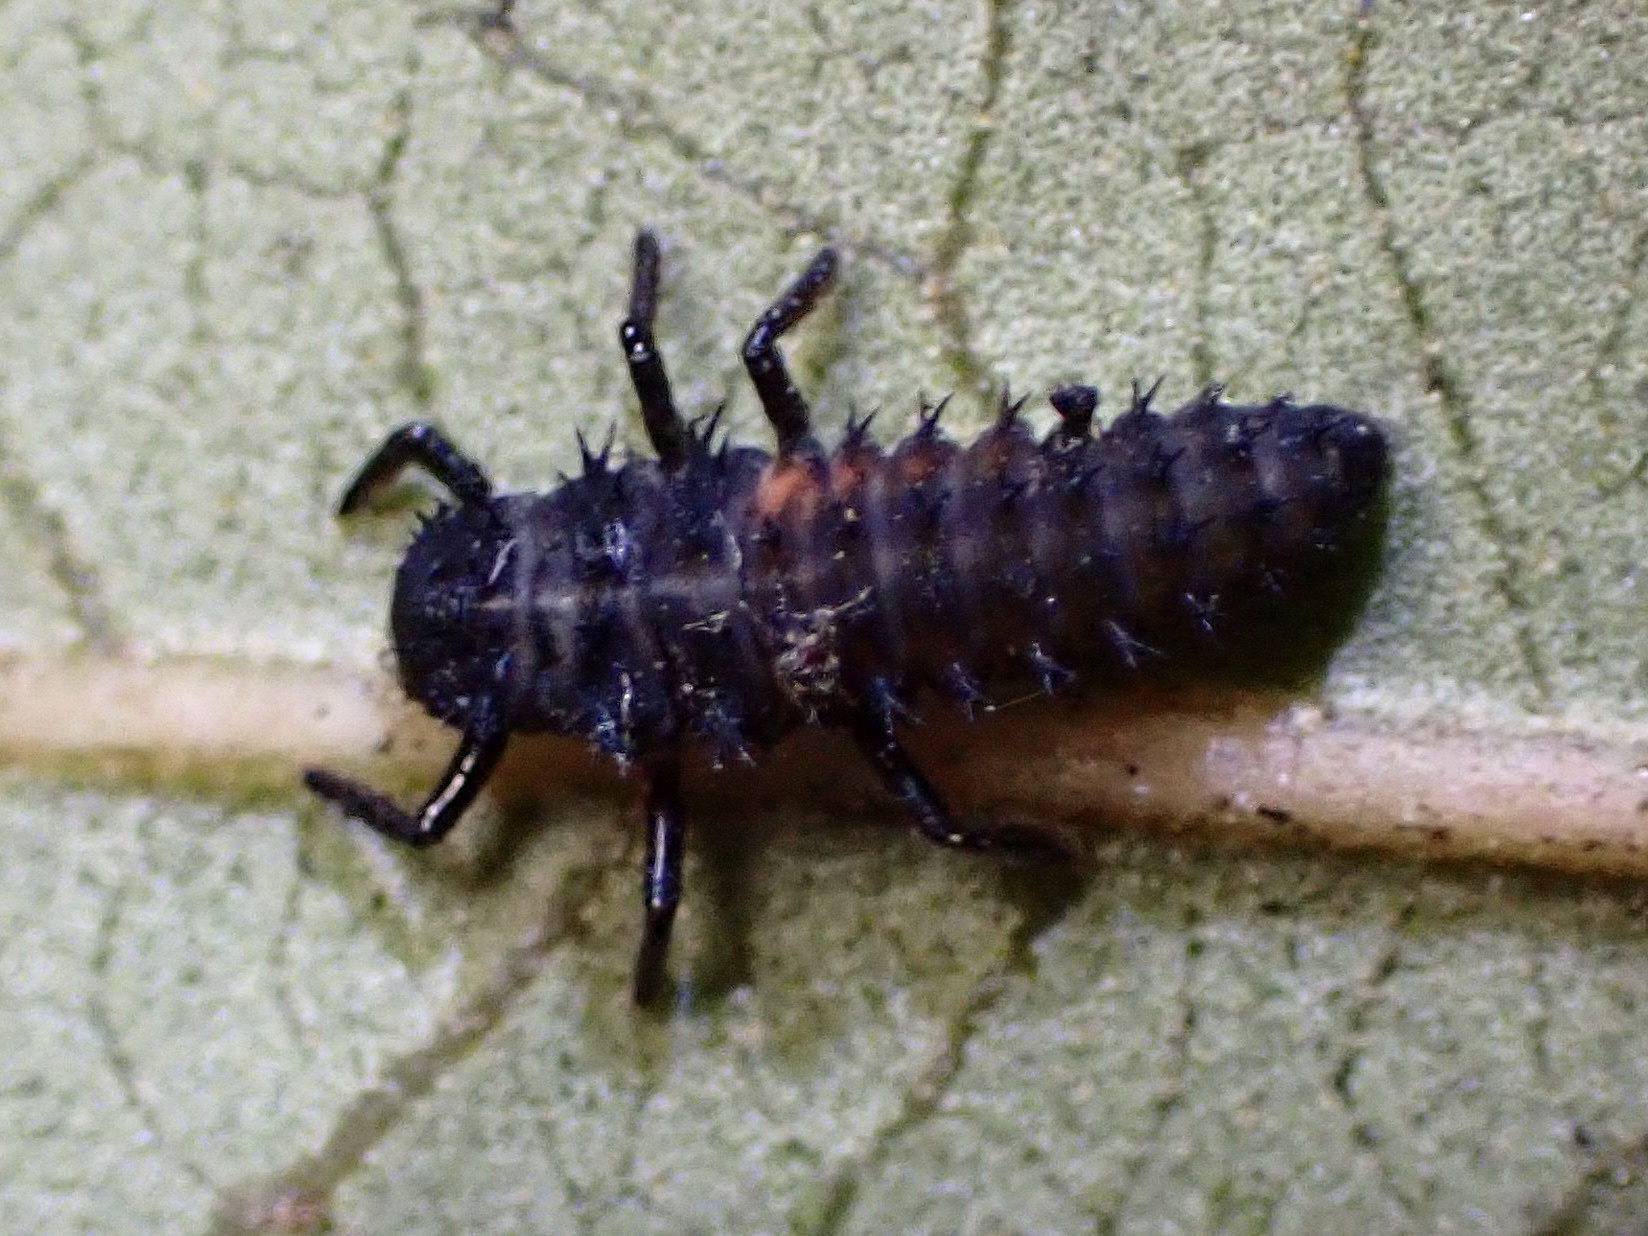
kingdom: Animalia
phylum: Arthropoda
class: Insecta
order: Coleoptera
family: Coccinellidae
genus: Harmonia
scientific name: Harmonia axyridis
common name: Harlequin ladybird
